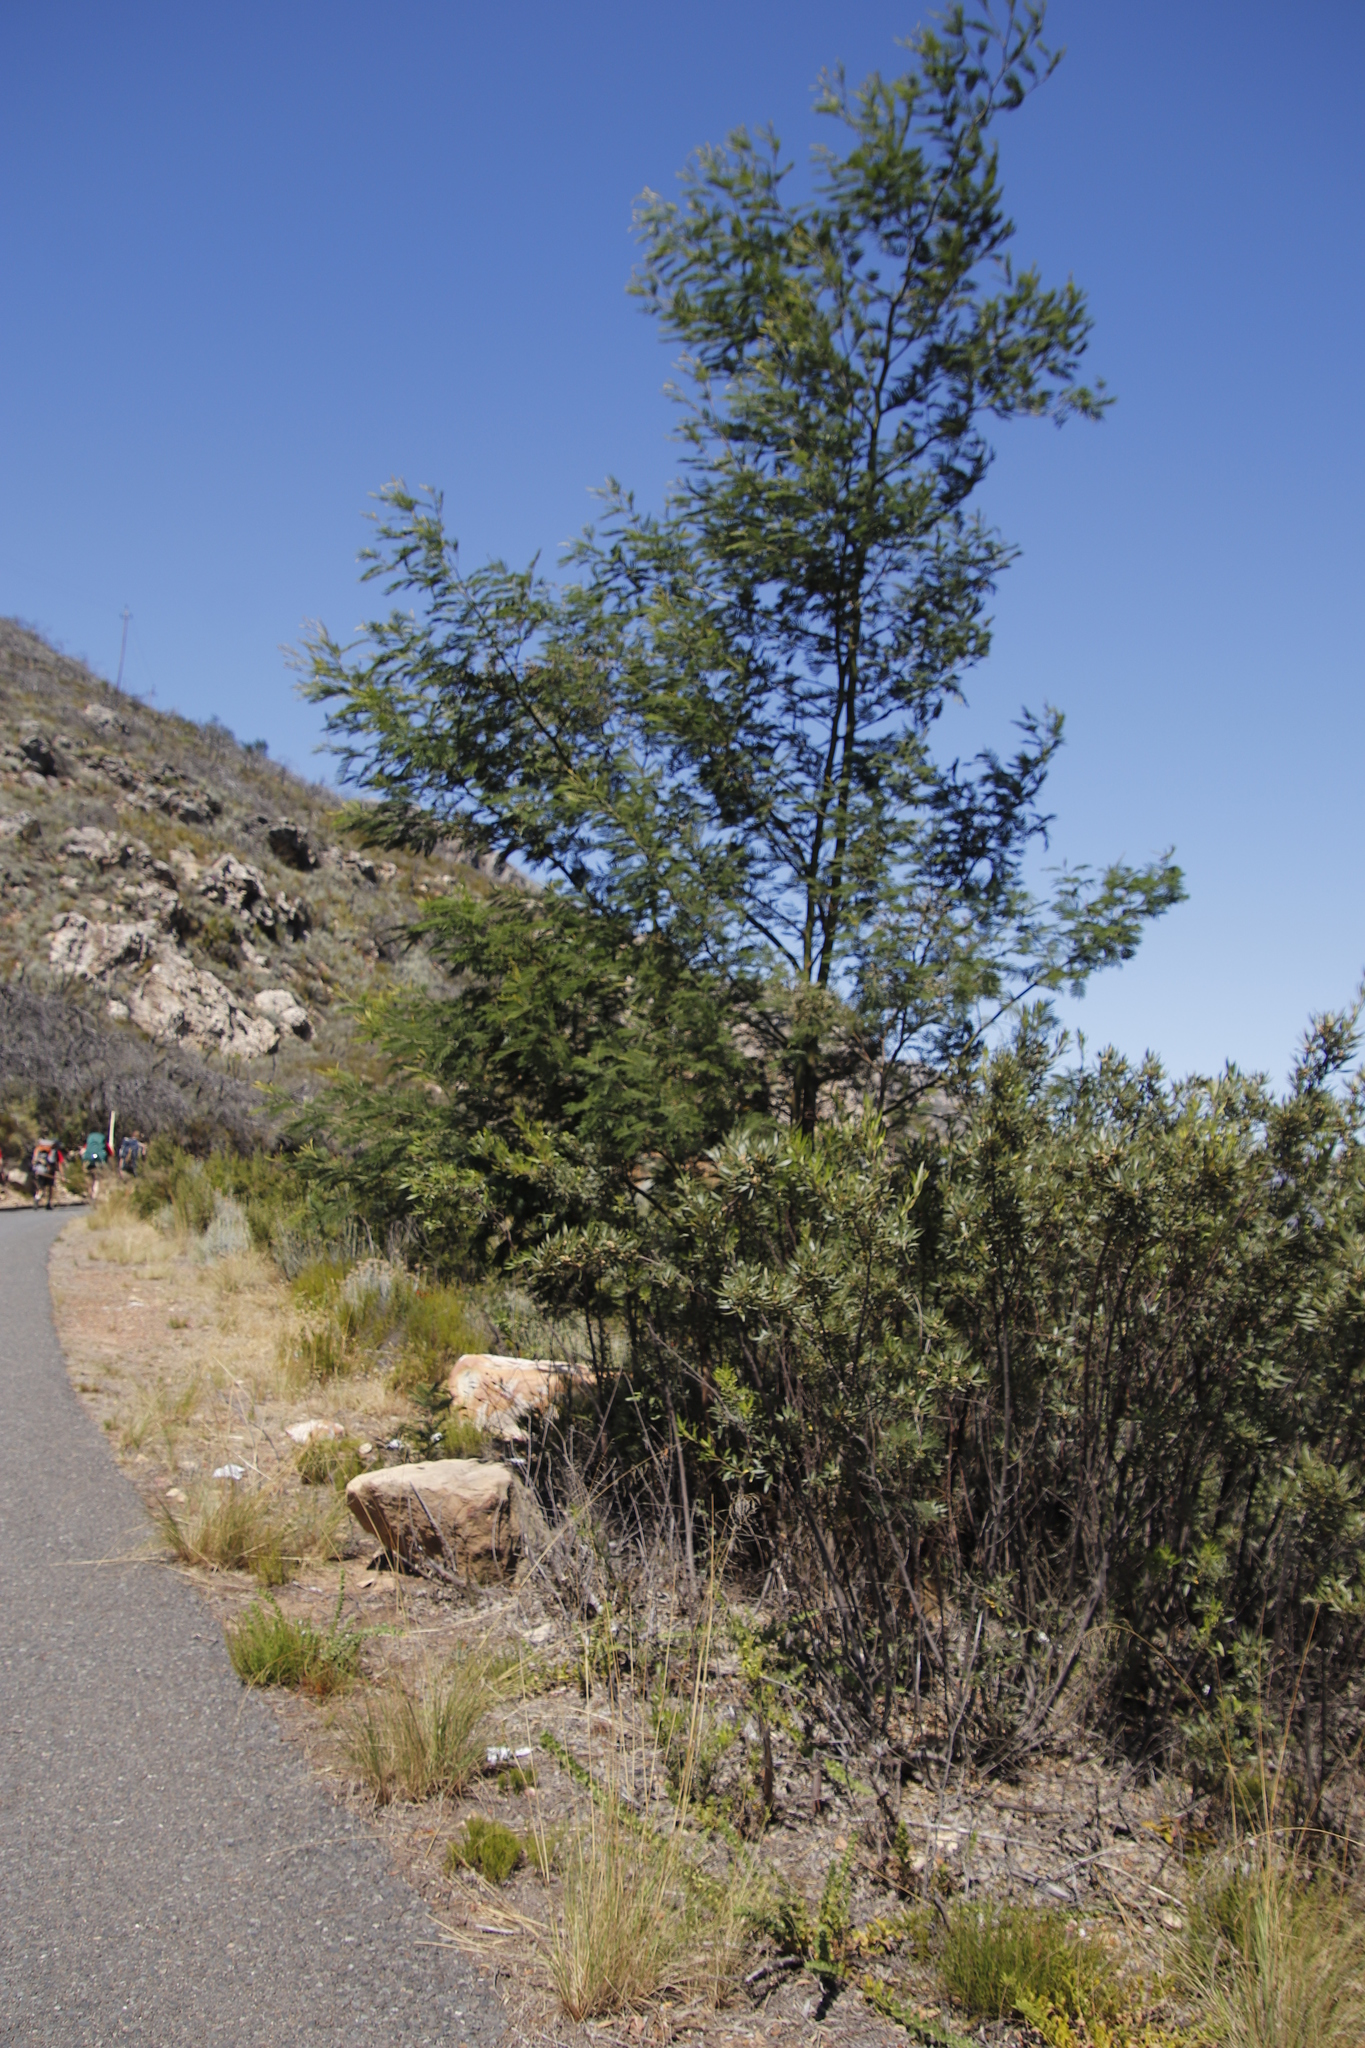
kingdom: Plantae
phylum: Tracheophyta
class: Magnoliopsida
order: Fabales
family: Fabaceae
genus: Acacia
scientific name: Acacia mearnsii
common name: Black wattle
